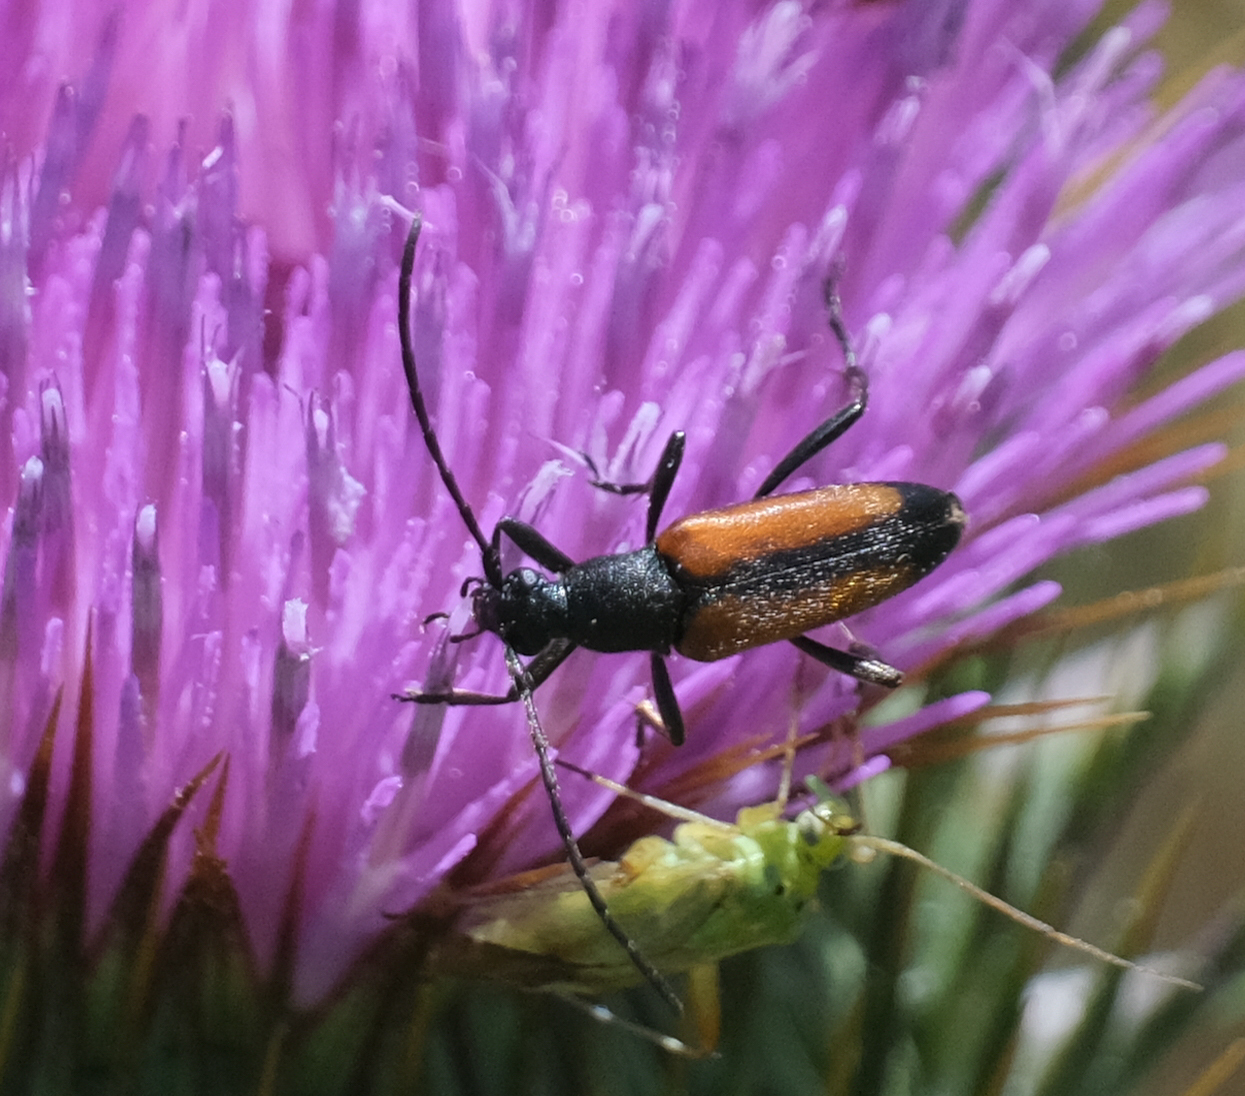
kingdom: Animalia
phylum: Arthropoda
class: Insecta
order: Coleoptera
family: Cerambycidae
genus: Stenurella
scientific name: Stenurella melanura
